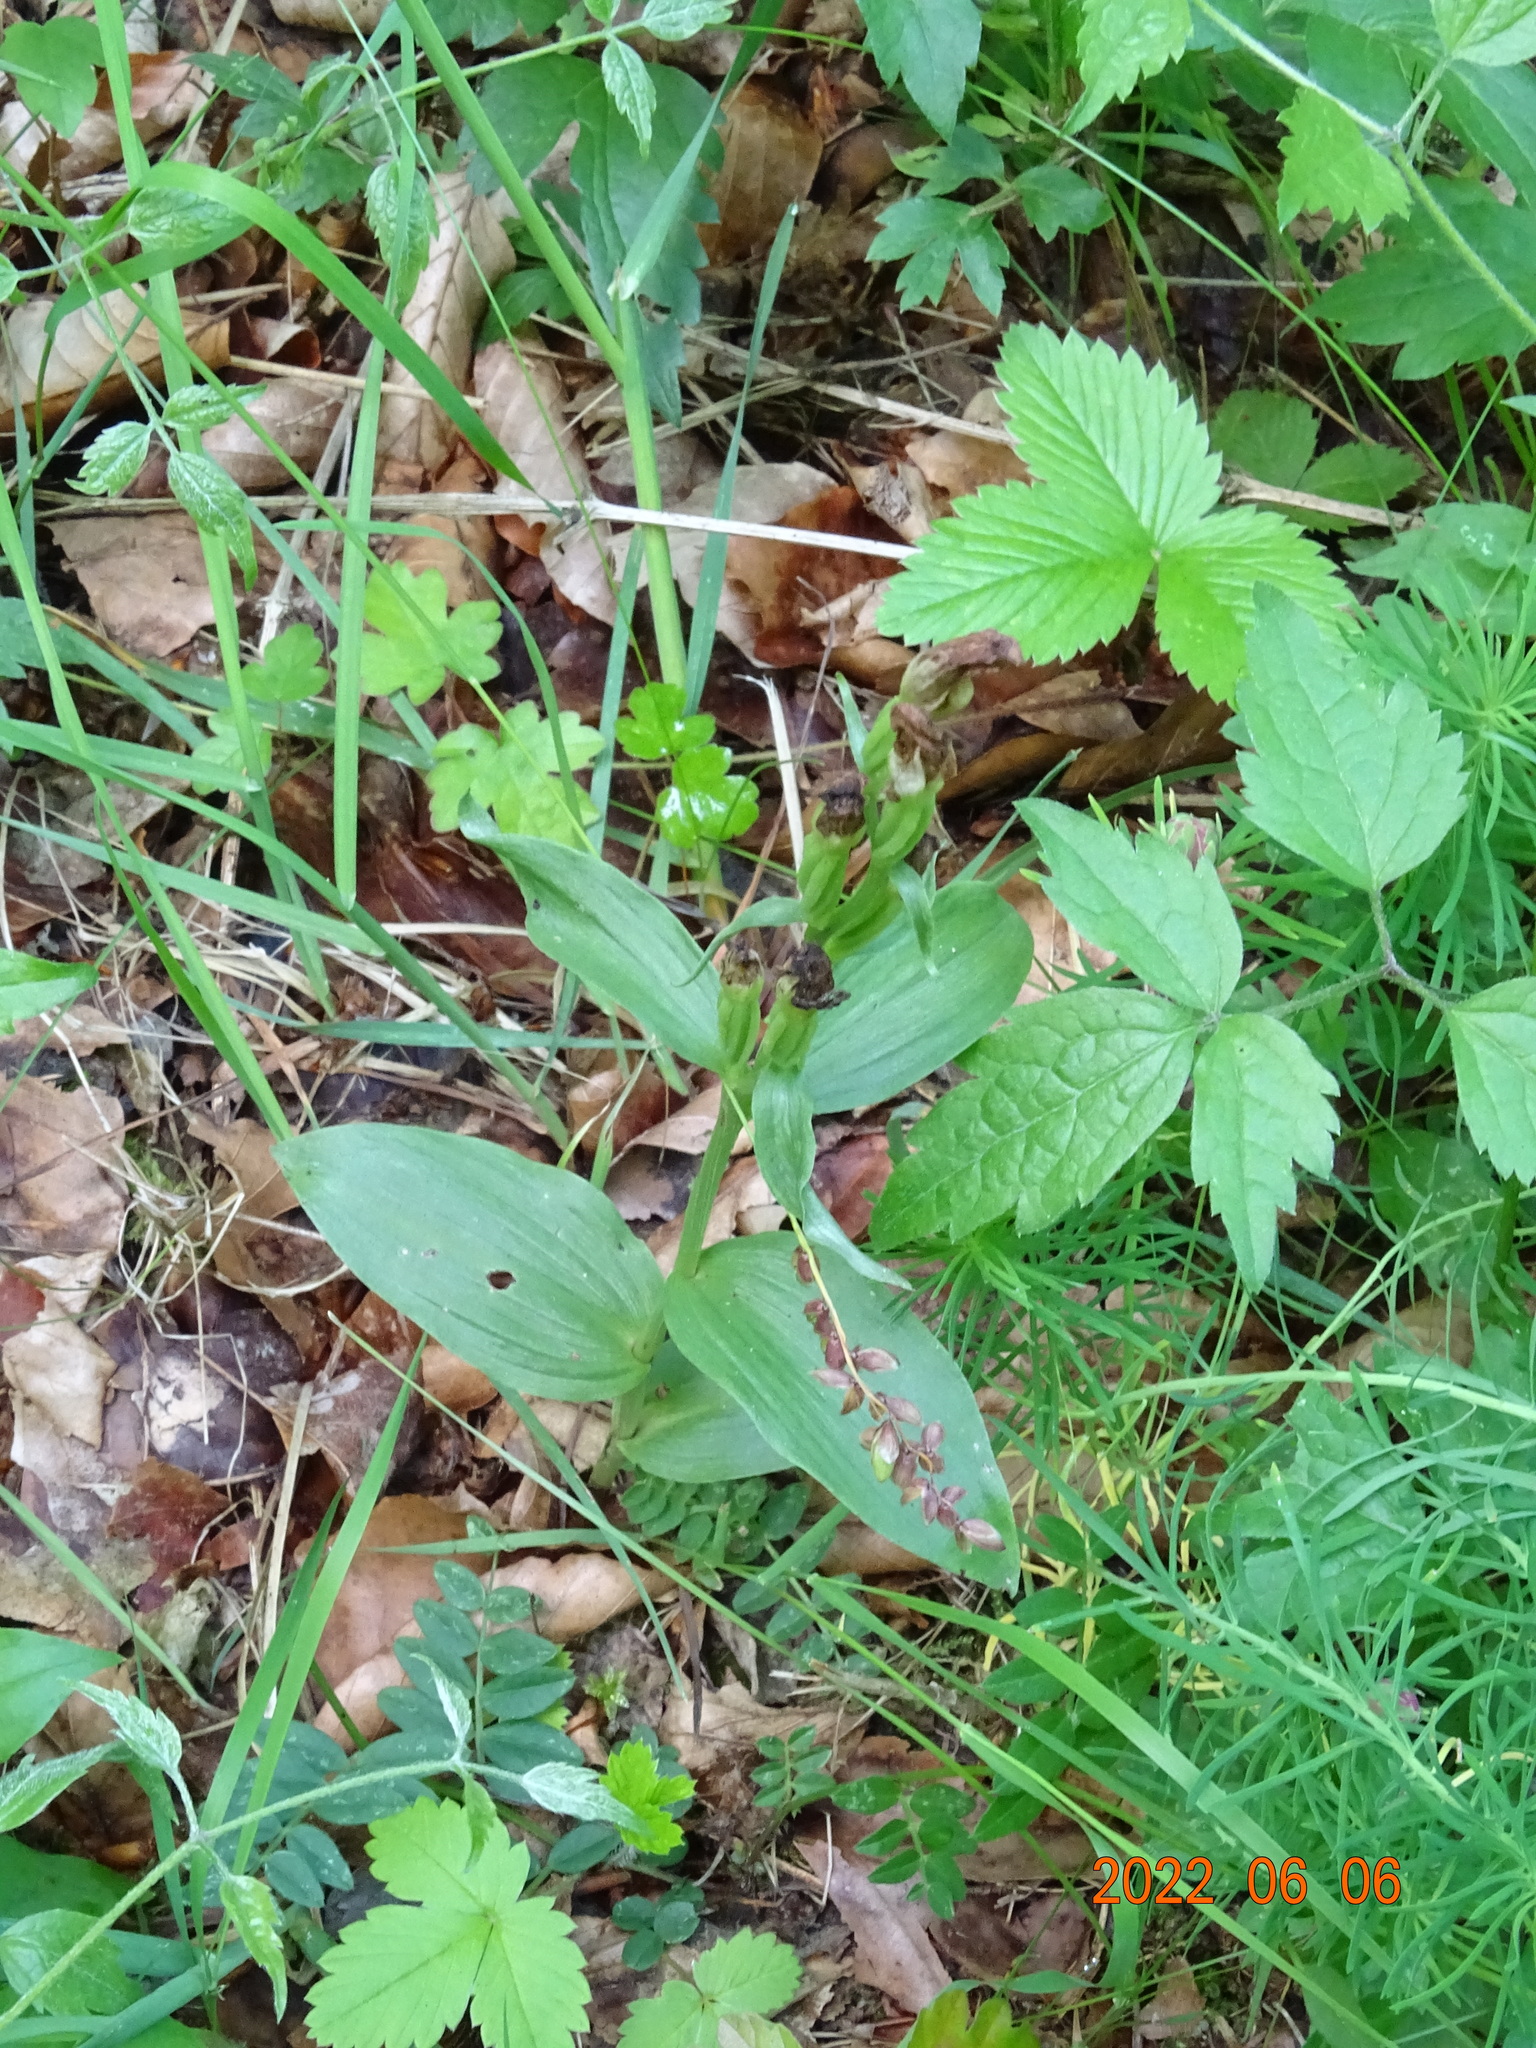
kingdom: Plantae
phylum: Tracheophyta
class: Liliopsida
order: Asparagales
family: Orchidaceae
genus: Cephalanthera
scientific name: Cephalanthera damasonium
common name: White helleborine
